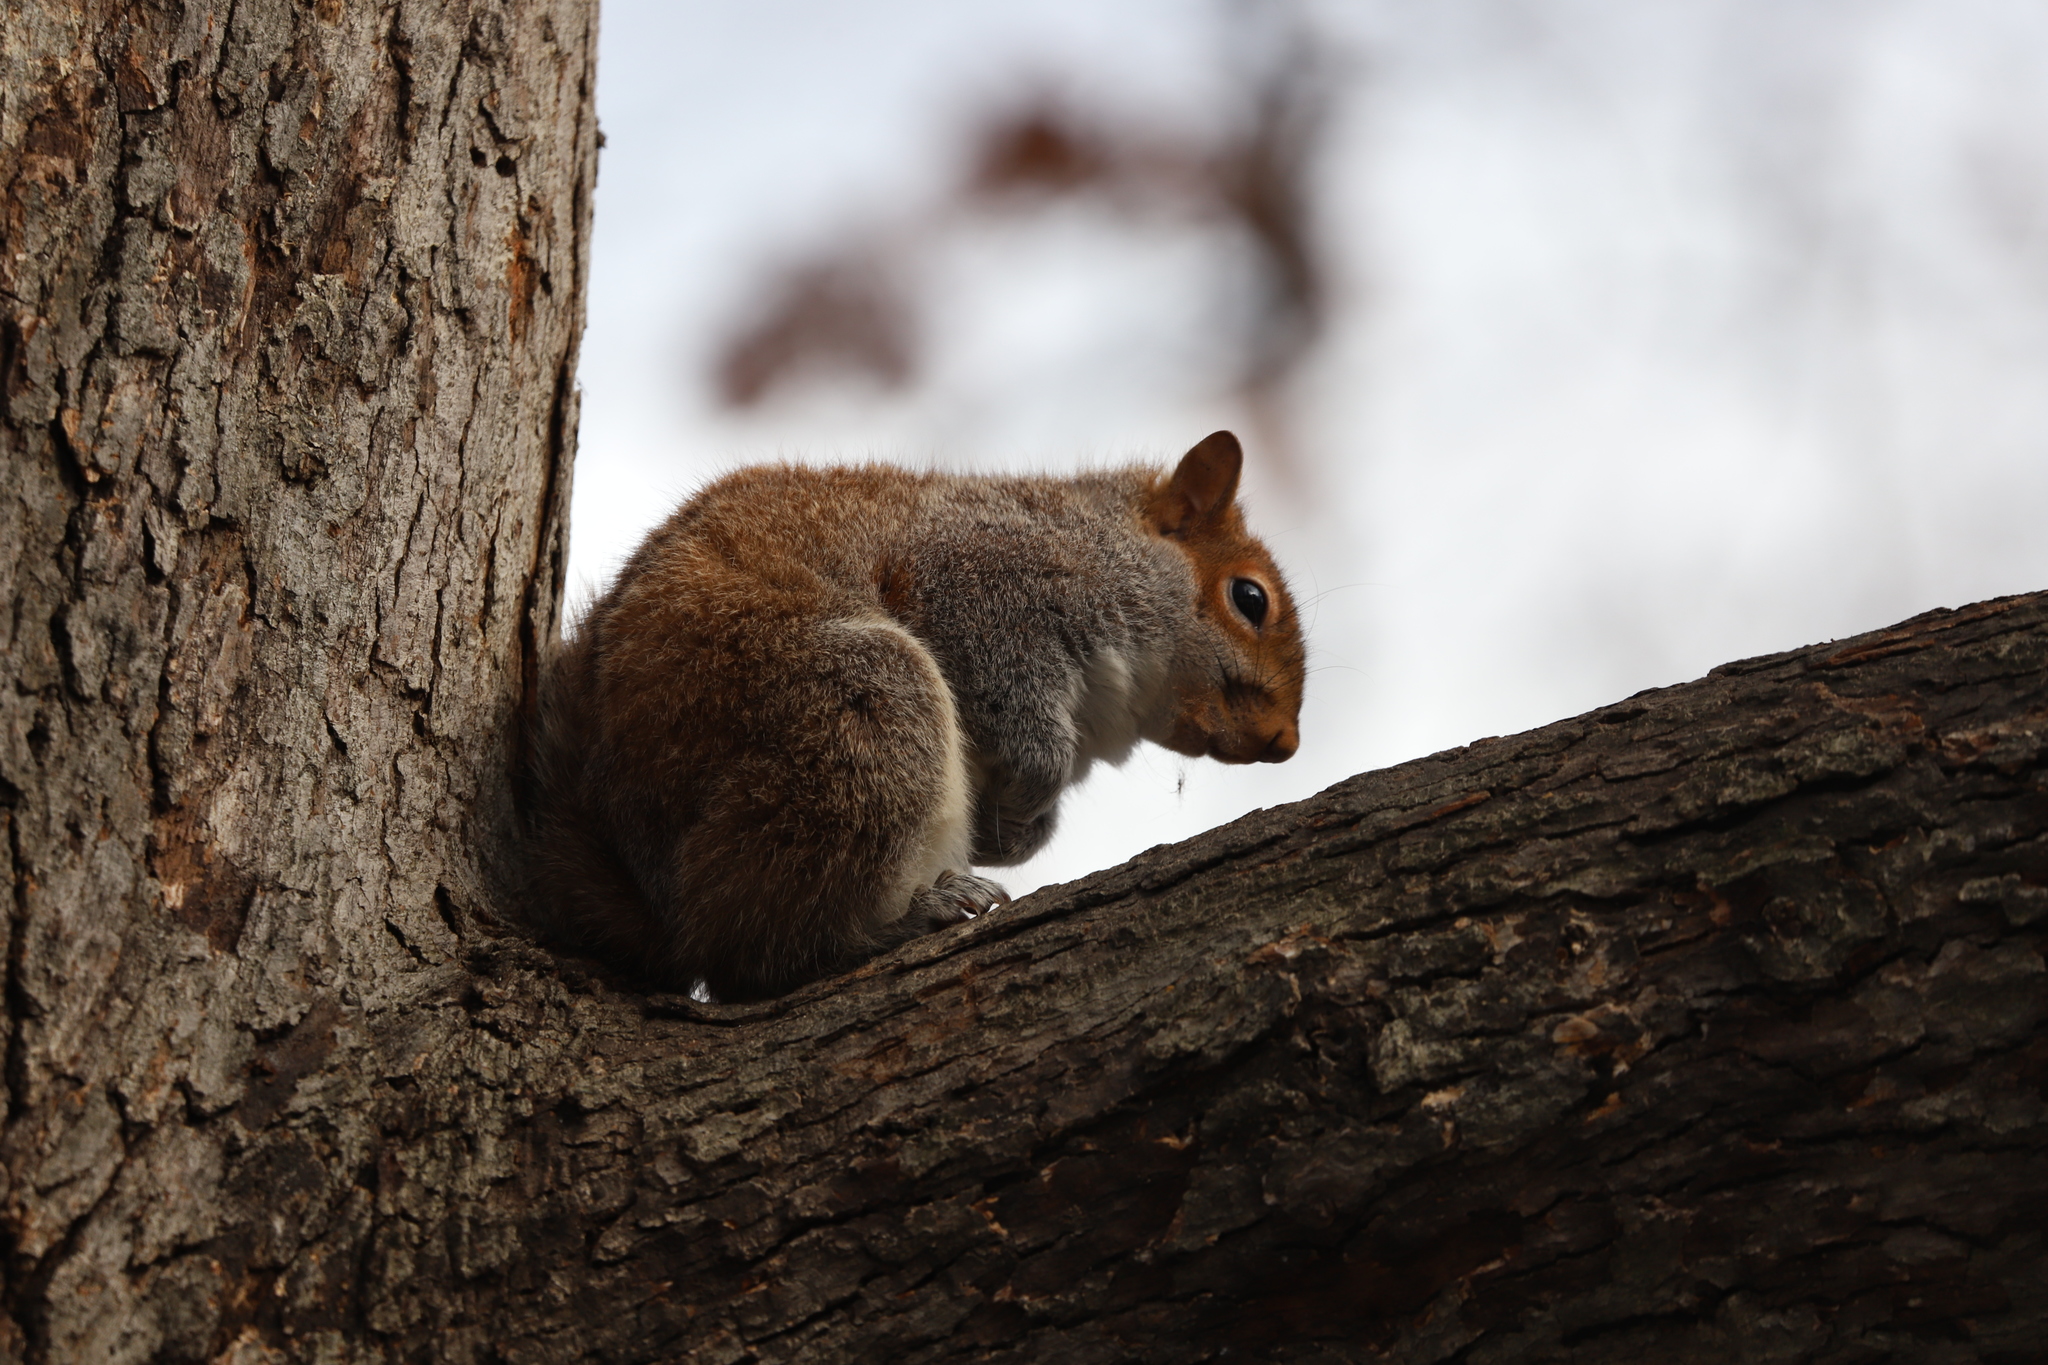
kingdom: Animalia
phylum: Chordata
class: Mammalia
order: Rodentia
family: Sciuridae
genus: Sciurus
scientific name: Sciurus carolinensis
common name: Eastern gray squirrel
